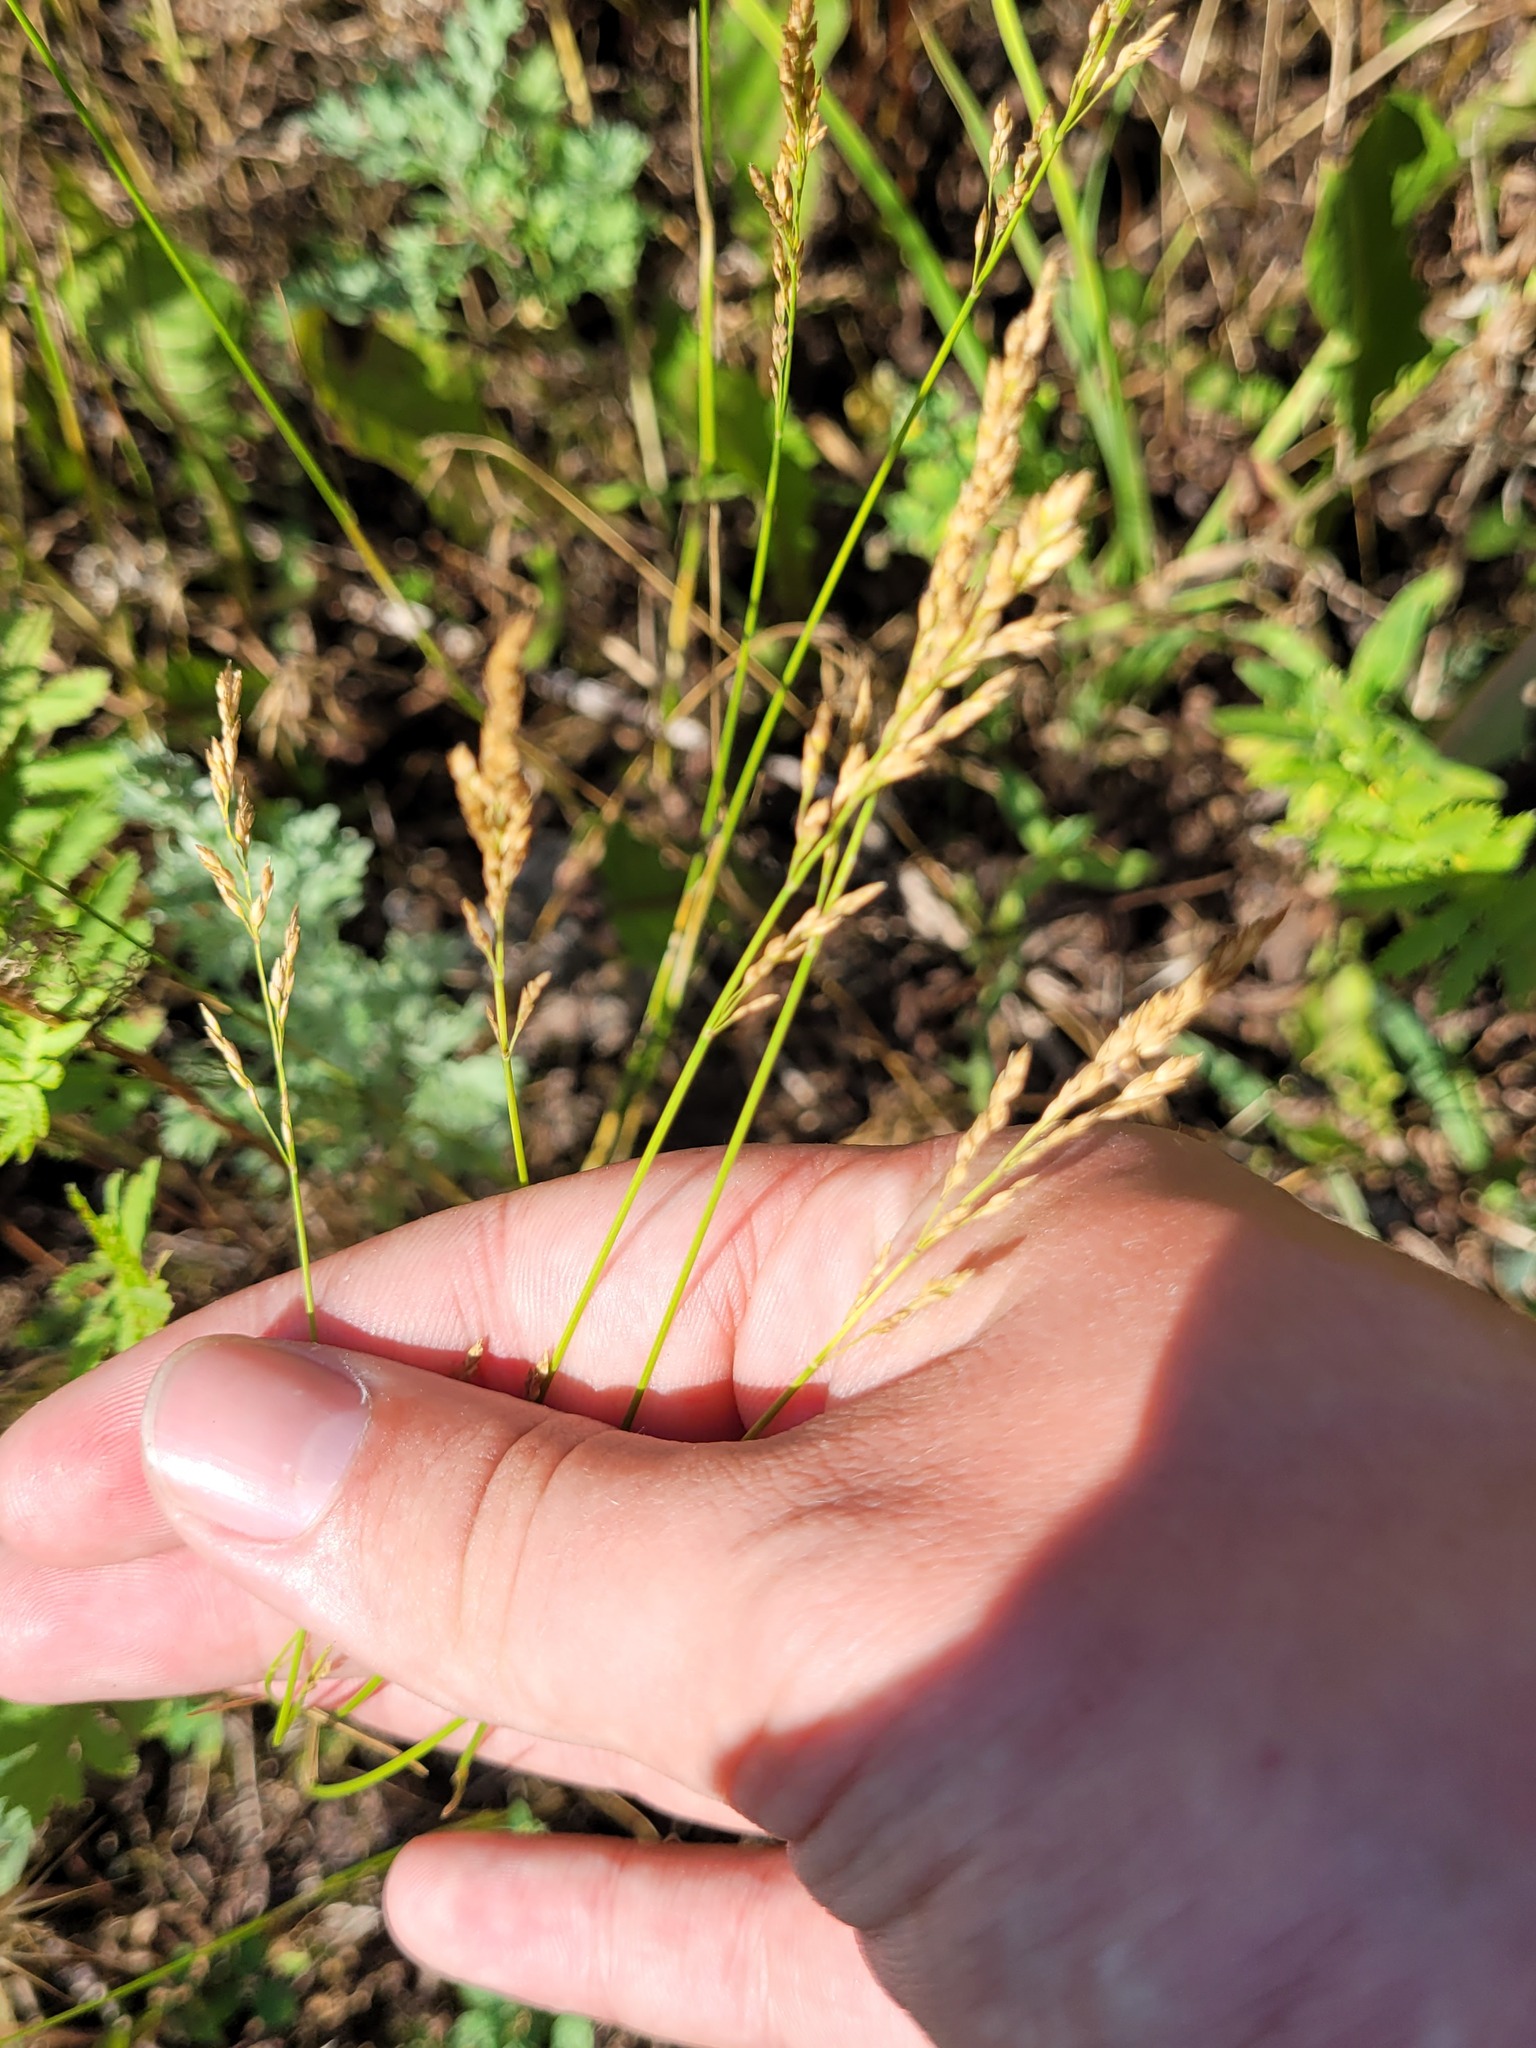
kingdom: Plantae
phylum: Tracheophyta
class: Liliopsida
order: Poales
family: Poaceae
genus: Poa
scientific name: Poa compressa
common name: Canada bluegrass
